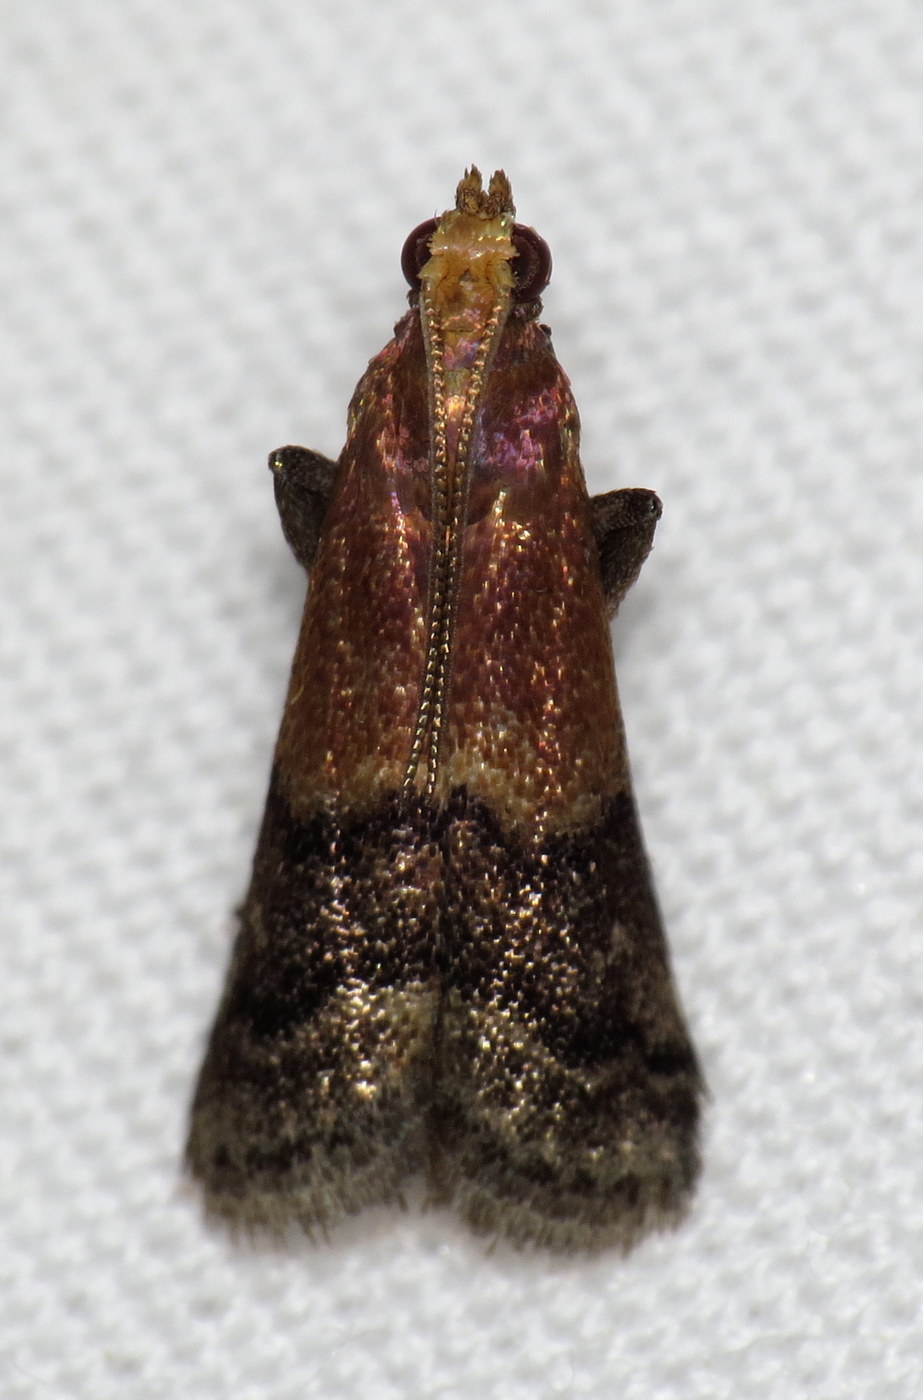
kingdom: Animalia
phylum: Arthropoda
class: Insecta
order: Lepidoptera
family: Pyralidae
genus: Eulogia
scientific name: Eulogia ochrifrontella
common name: Broad-banded eulogia moth
